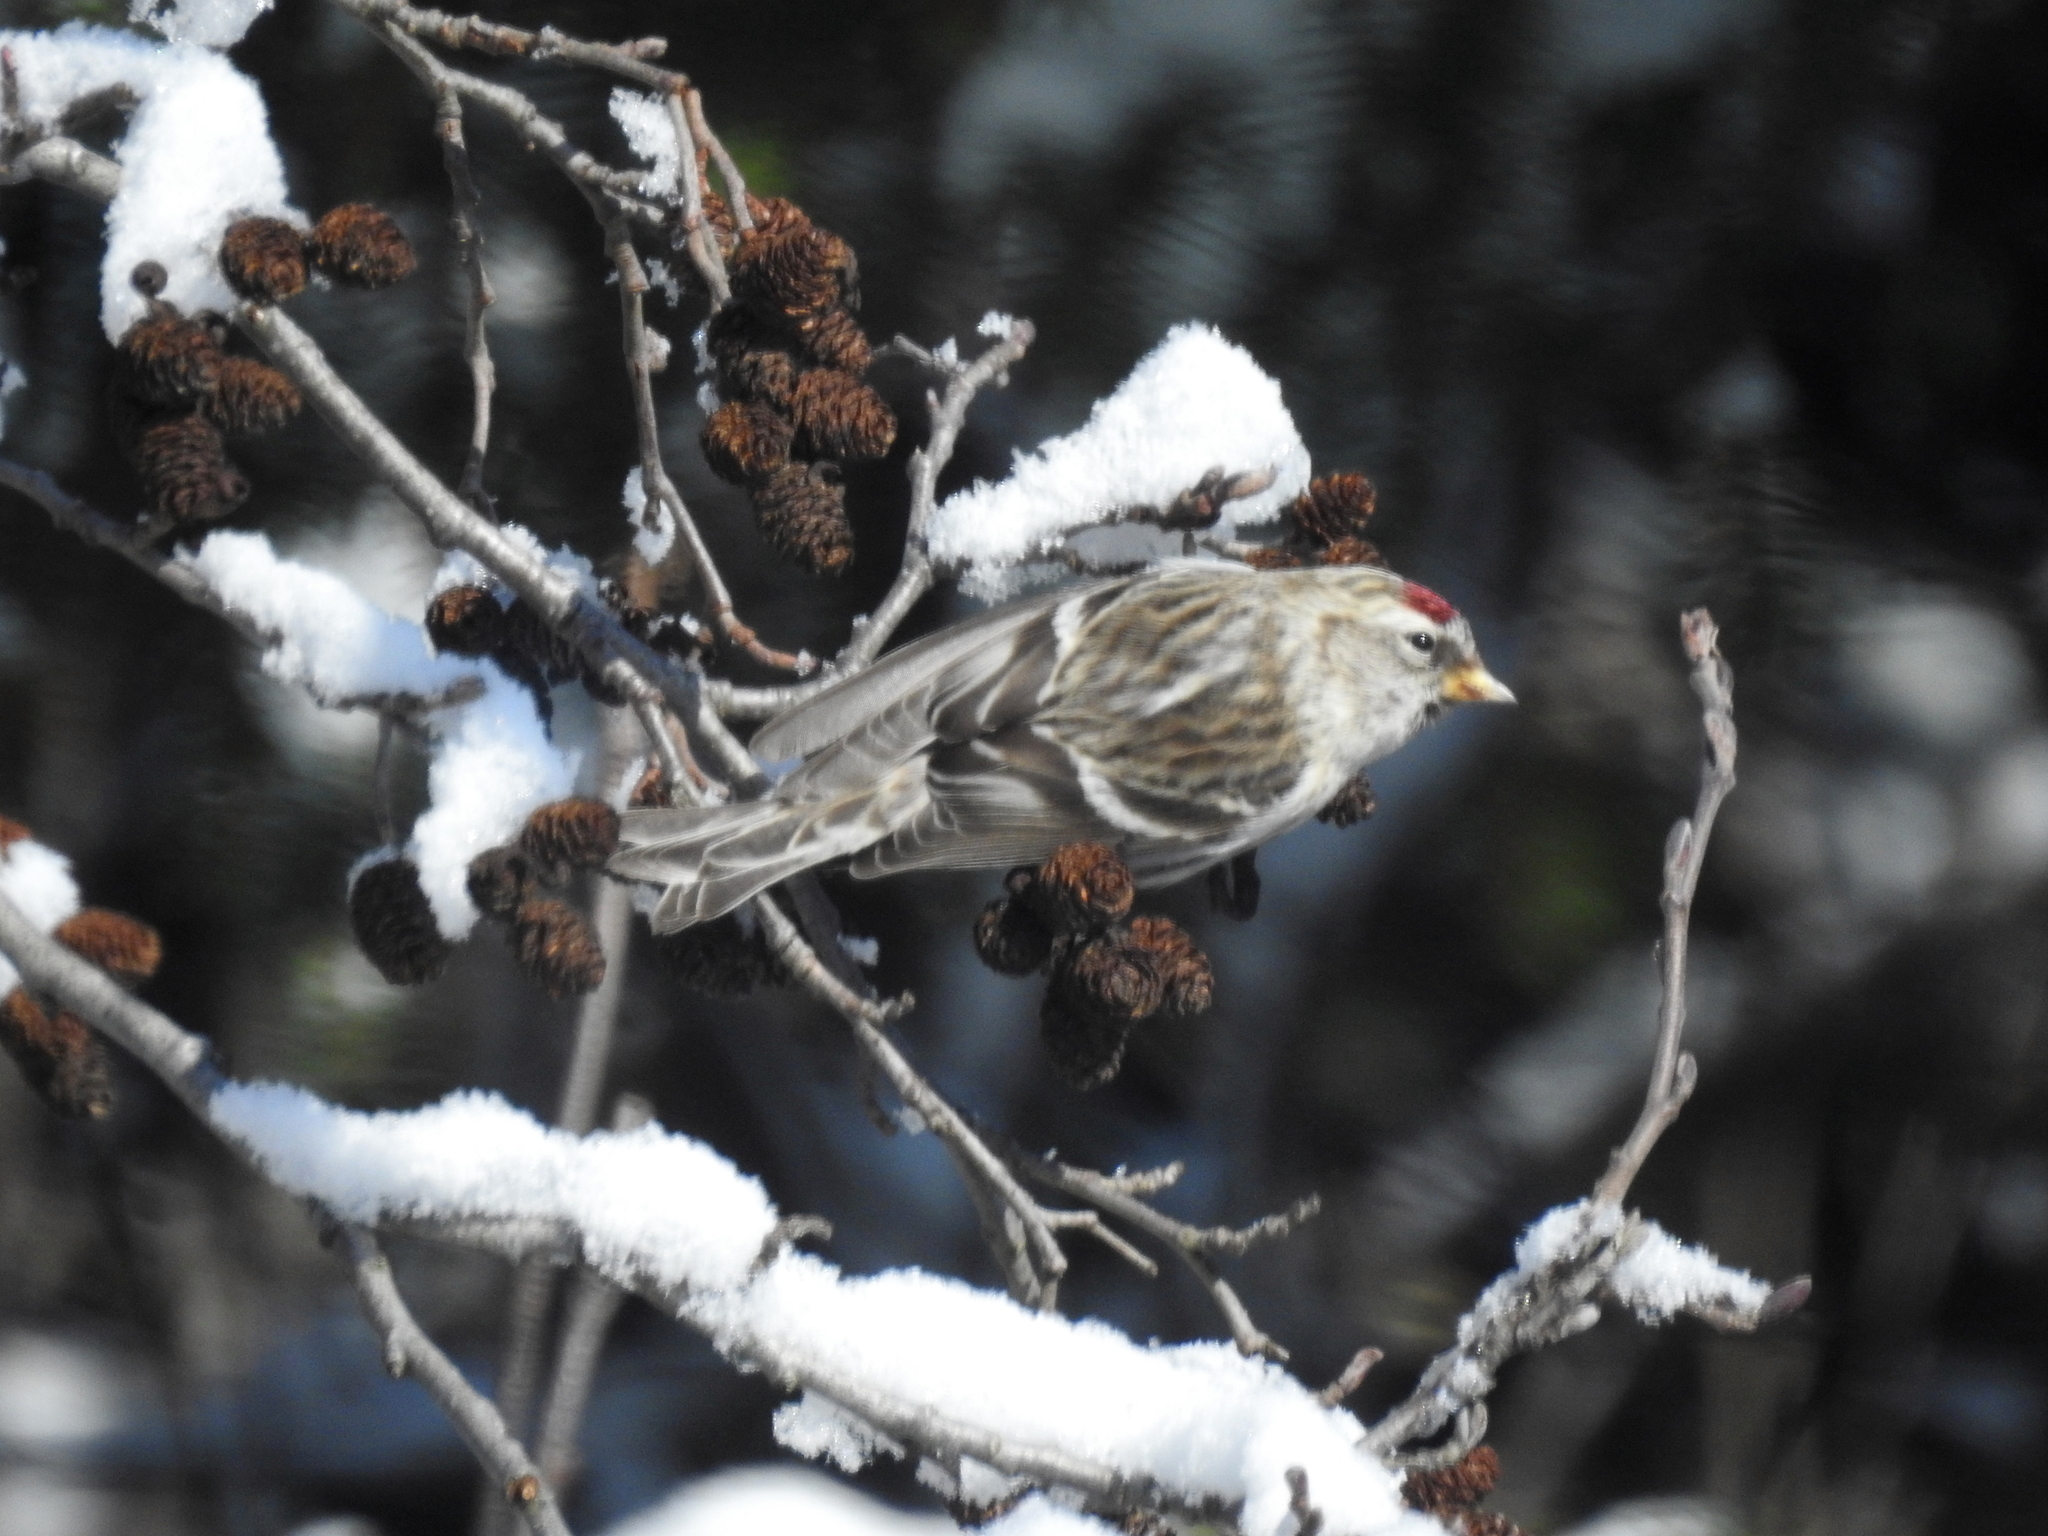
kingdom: Animalia
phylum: Chordata
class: Aves
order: Passeriformes
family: Fringillidae
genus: Acanthis
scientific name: Acanthis flammea
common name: Common redpoll
